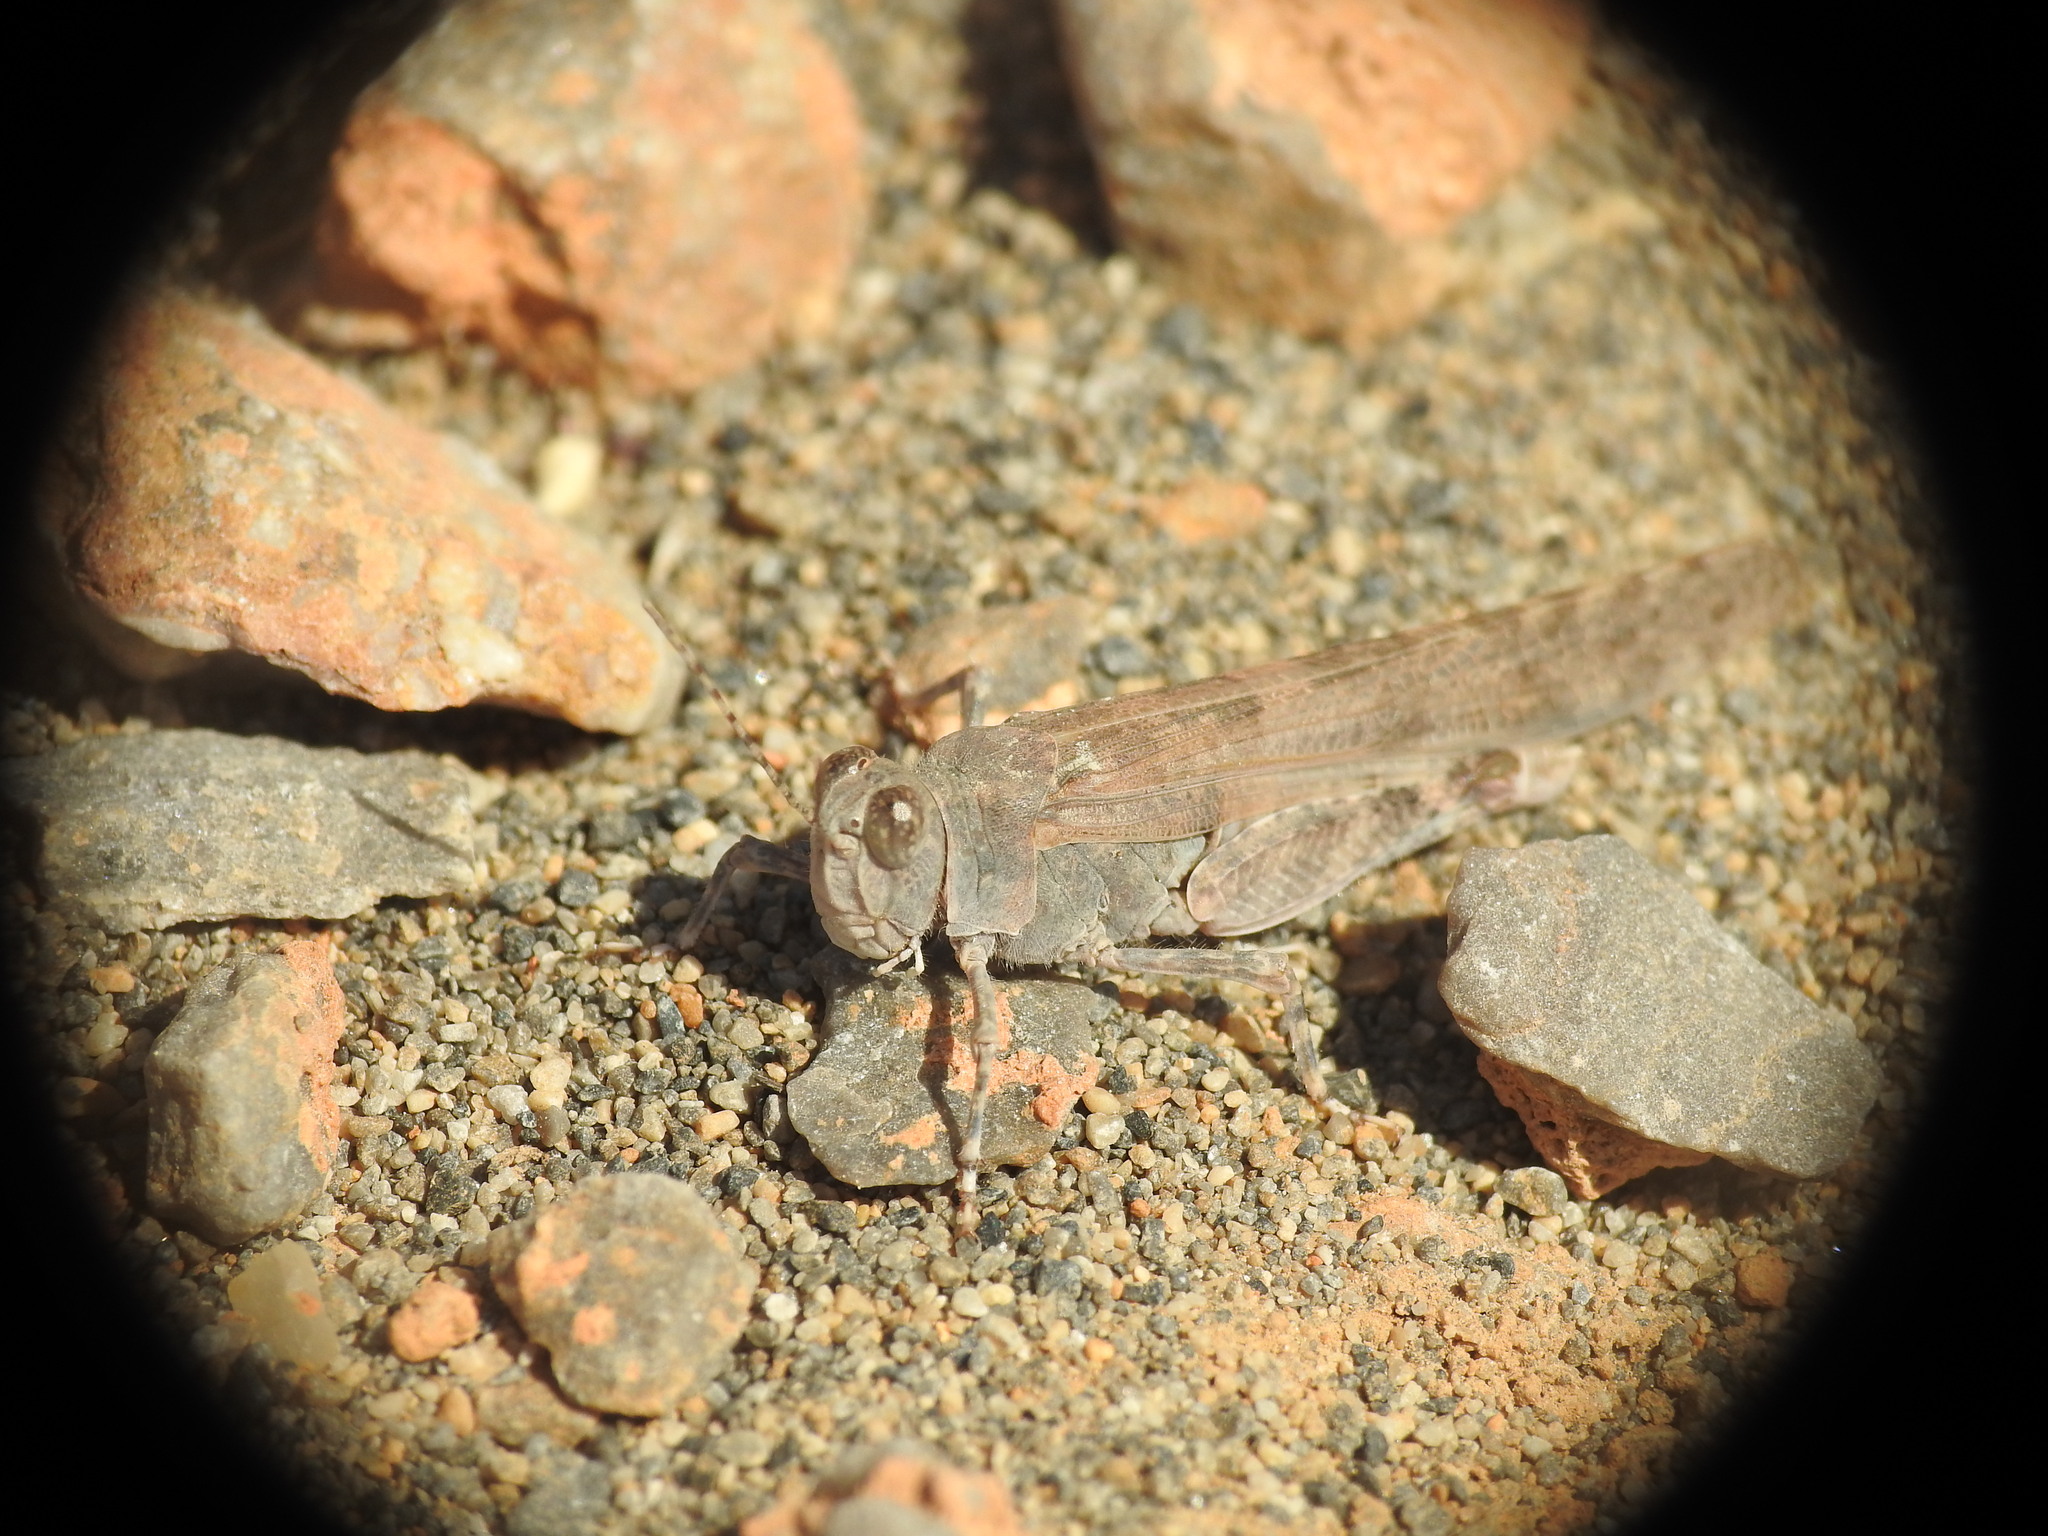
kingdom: Animalia
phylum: Arthropoda
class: Insecta
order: Orthoptera
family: Acrididae
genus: Sphingonotus
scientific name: Sphingonotus rubescens
